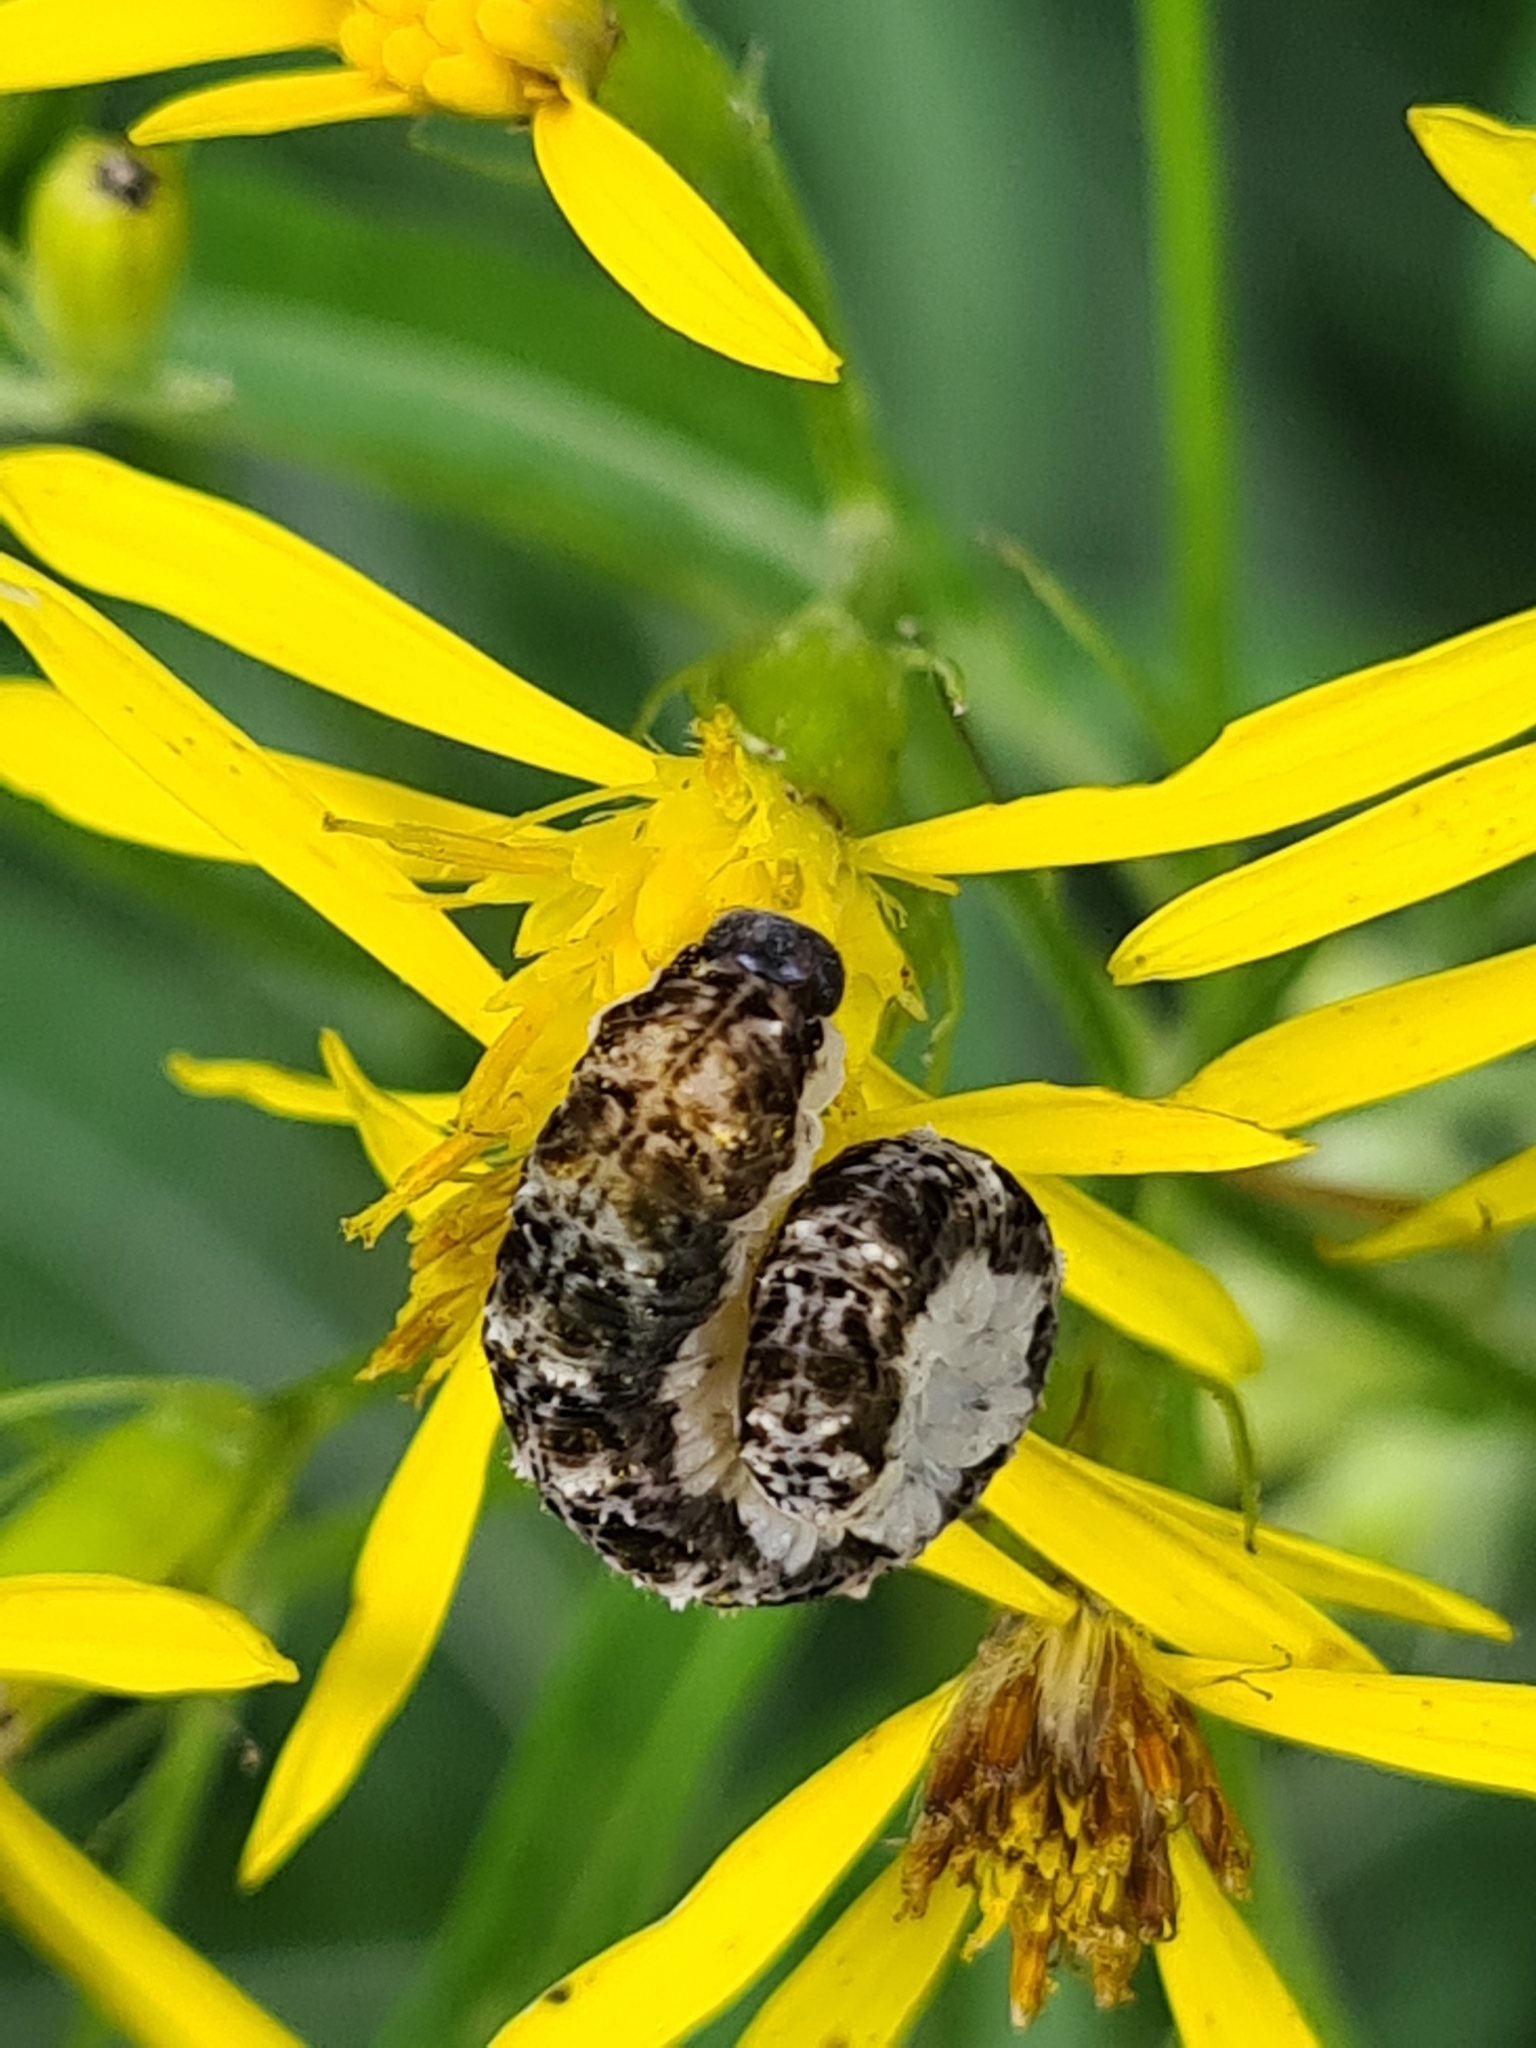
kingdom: Animalia
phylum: Arthropoda
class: Insecta
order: Hymenoptera
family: Tenthredinidae
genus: Tenthredo
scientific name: Tenthredo bipunctula
